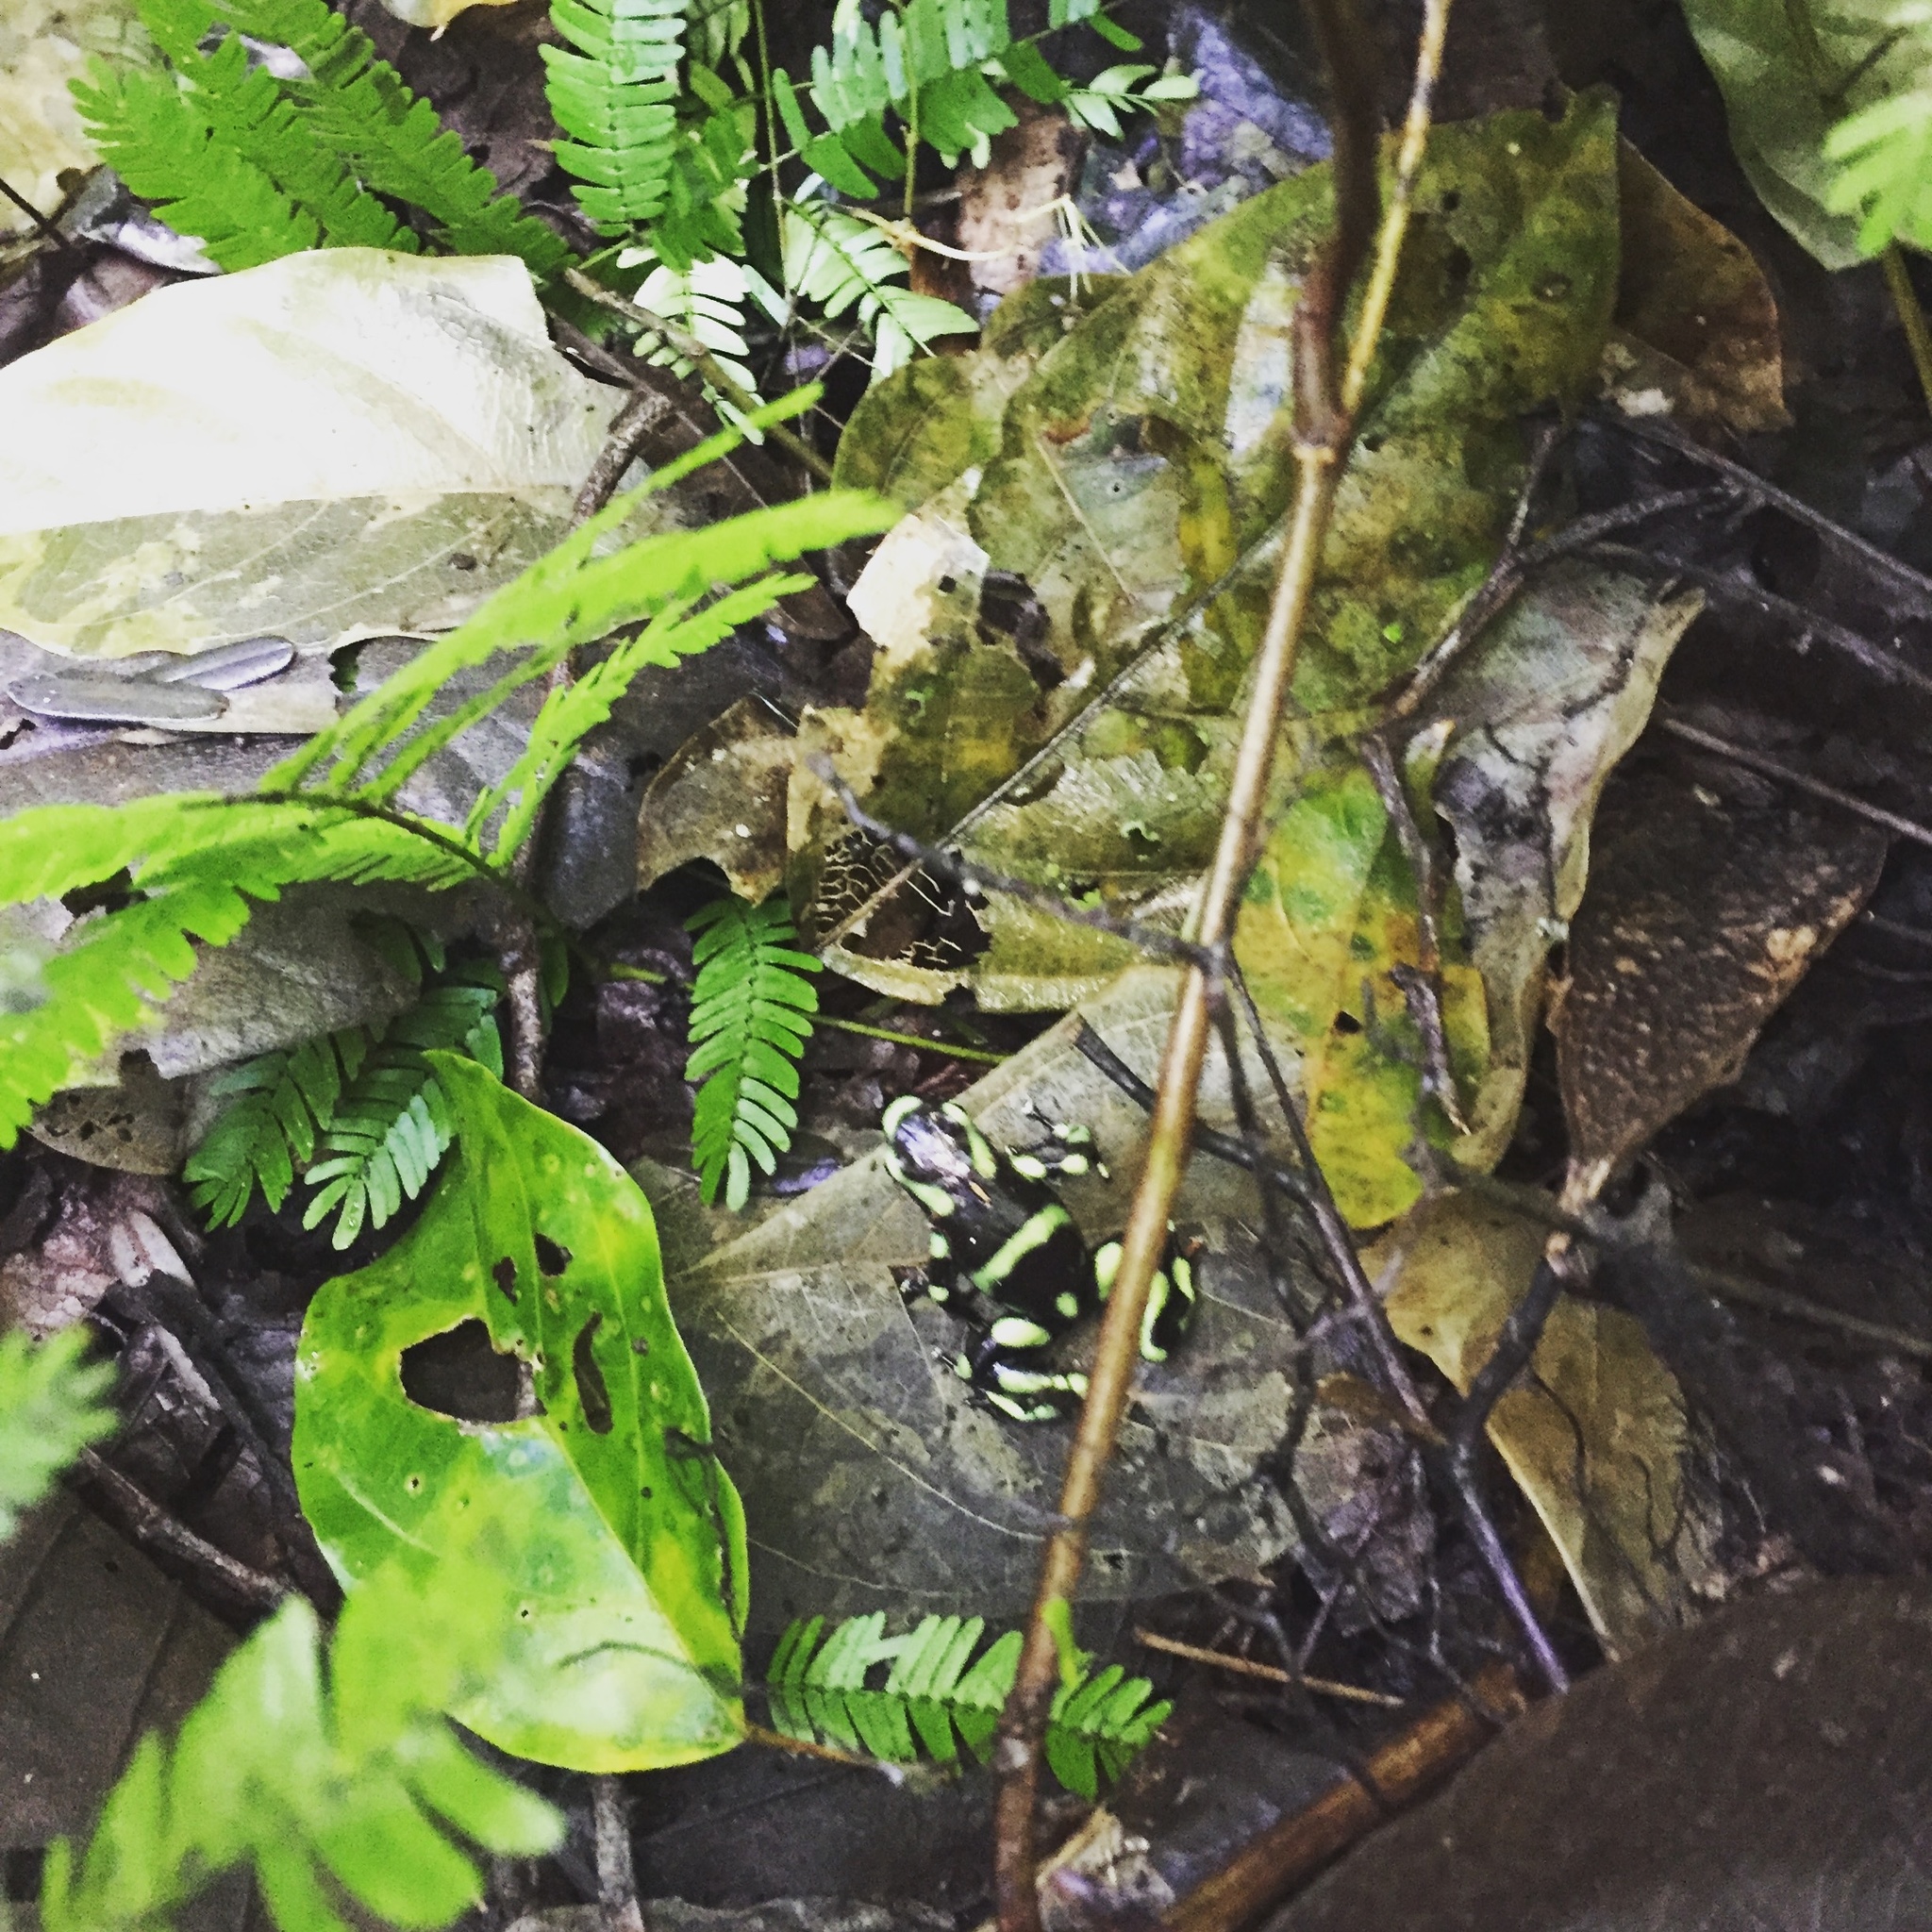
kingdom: Animalia
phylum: Chordata
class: Amphibia
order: Anura
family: Dendrobatidae
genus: Dendrobates
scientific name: Dendrobates auratus
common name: Green and black poison dart frog
